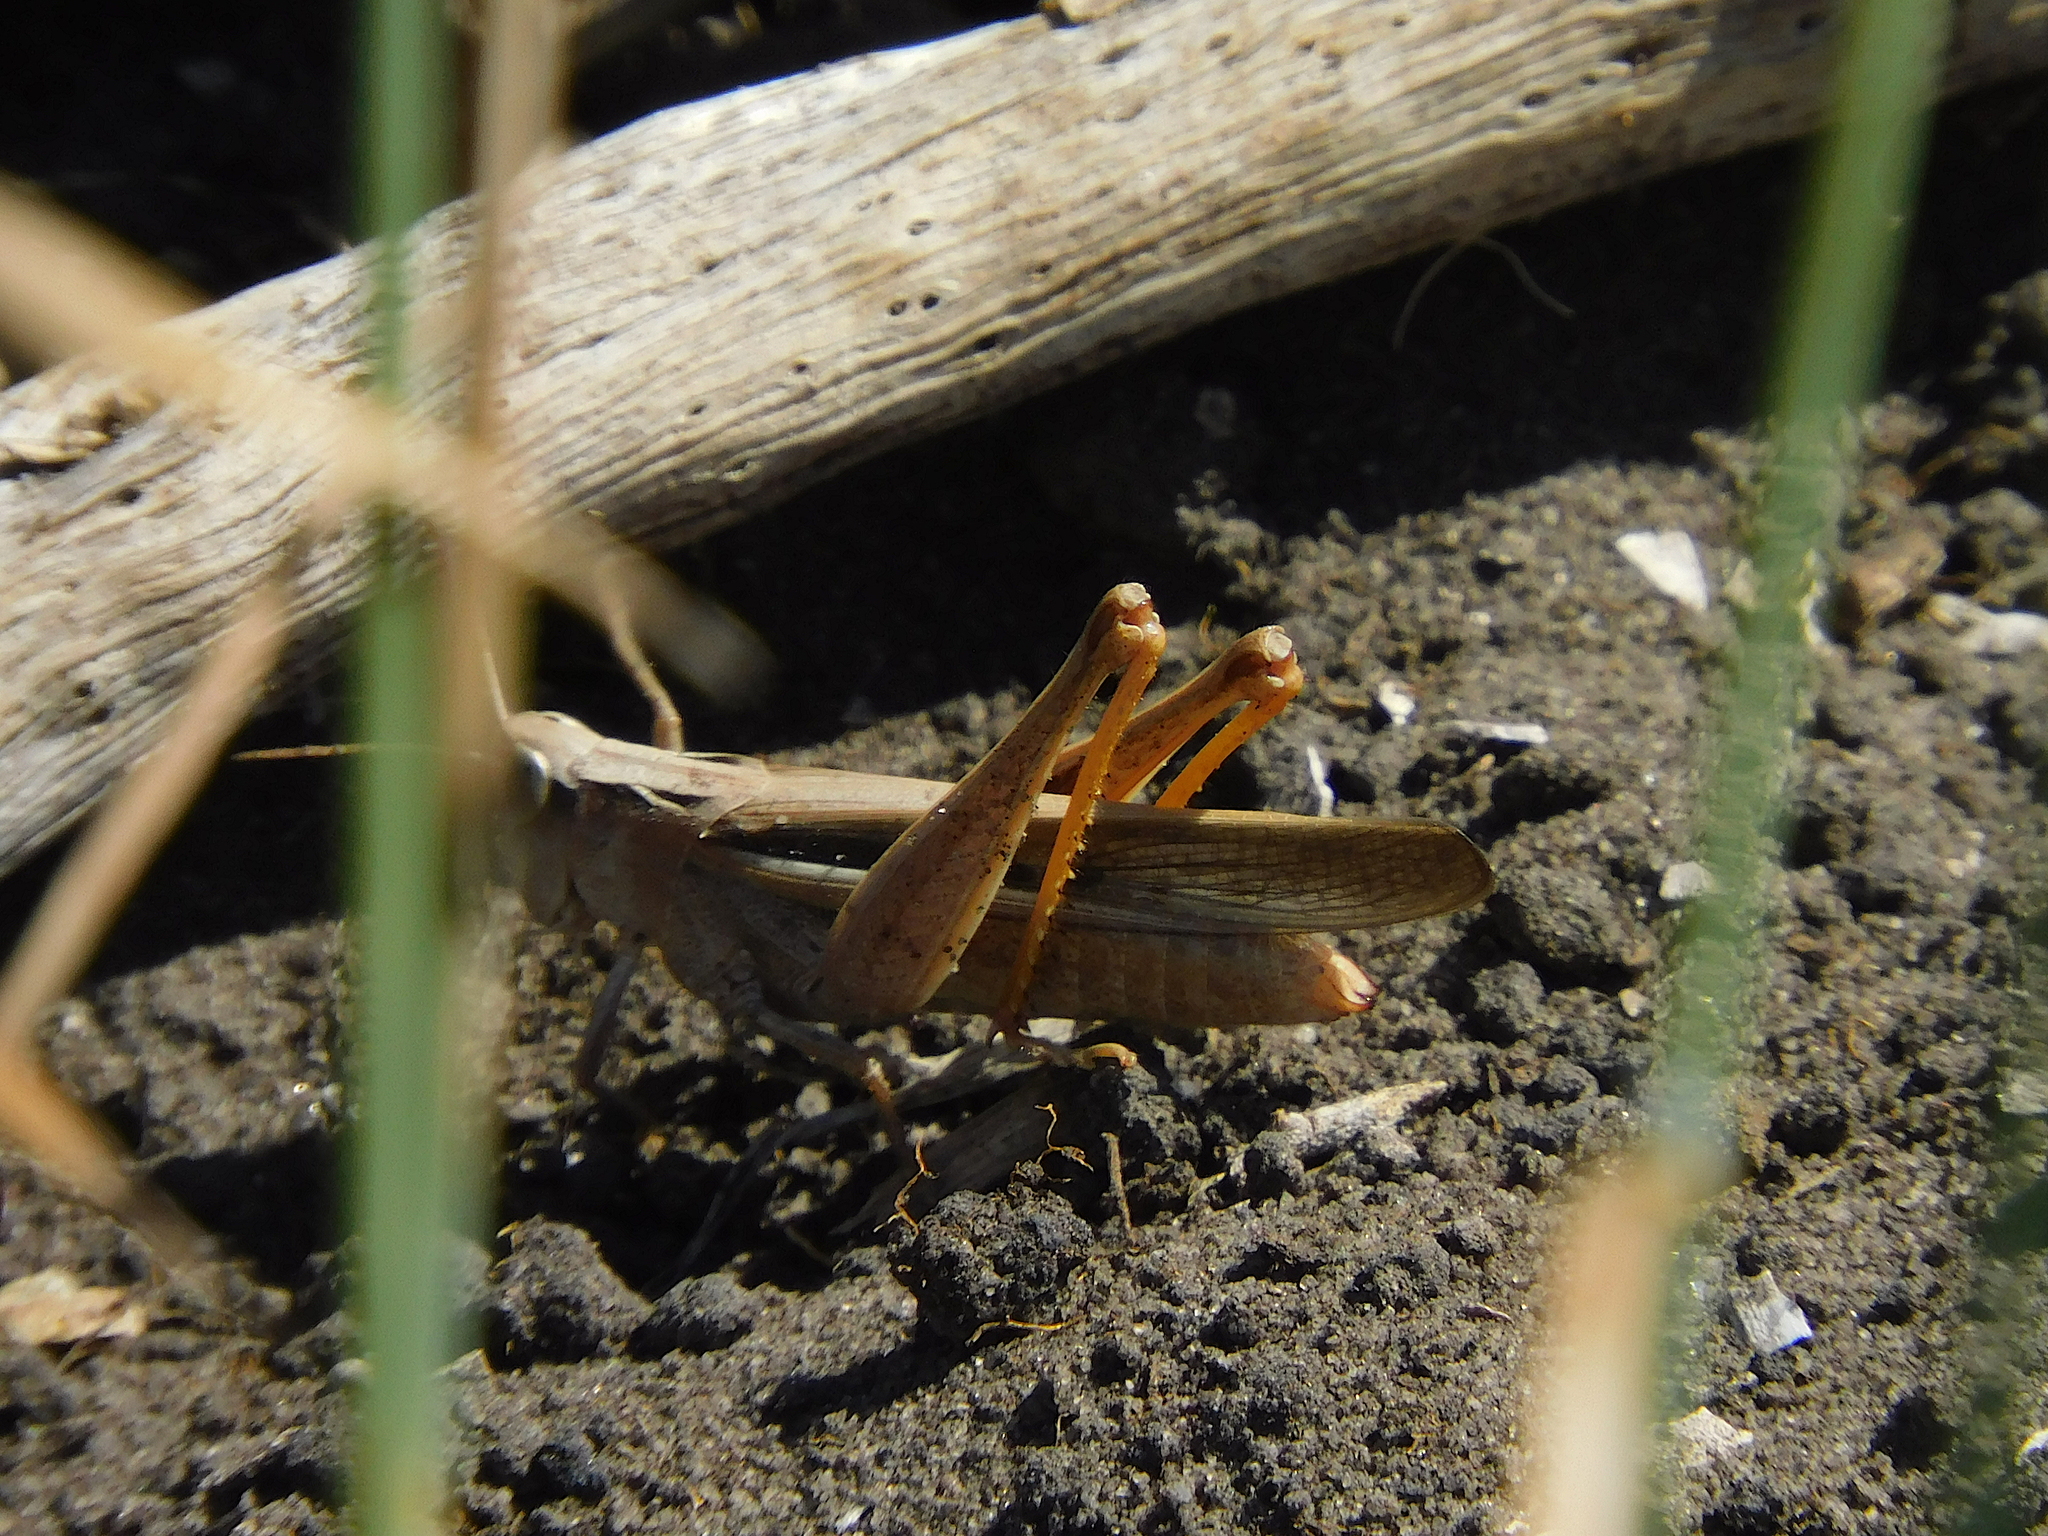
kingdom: Animalia
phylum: Arthropoda
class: Insecta
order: Orthoptera
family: Acrididae
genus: Schizobothrus
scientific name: Schizobothrus flavovittatus
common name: Disappearing grasshopper
